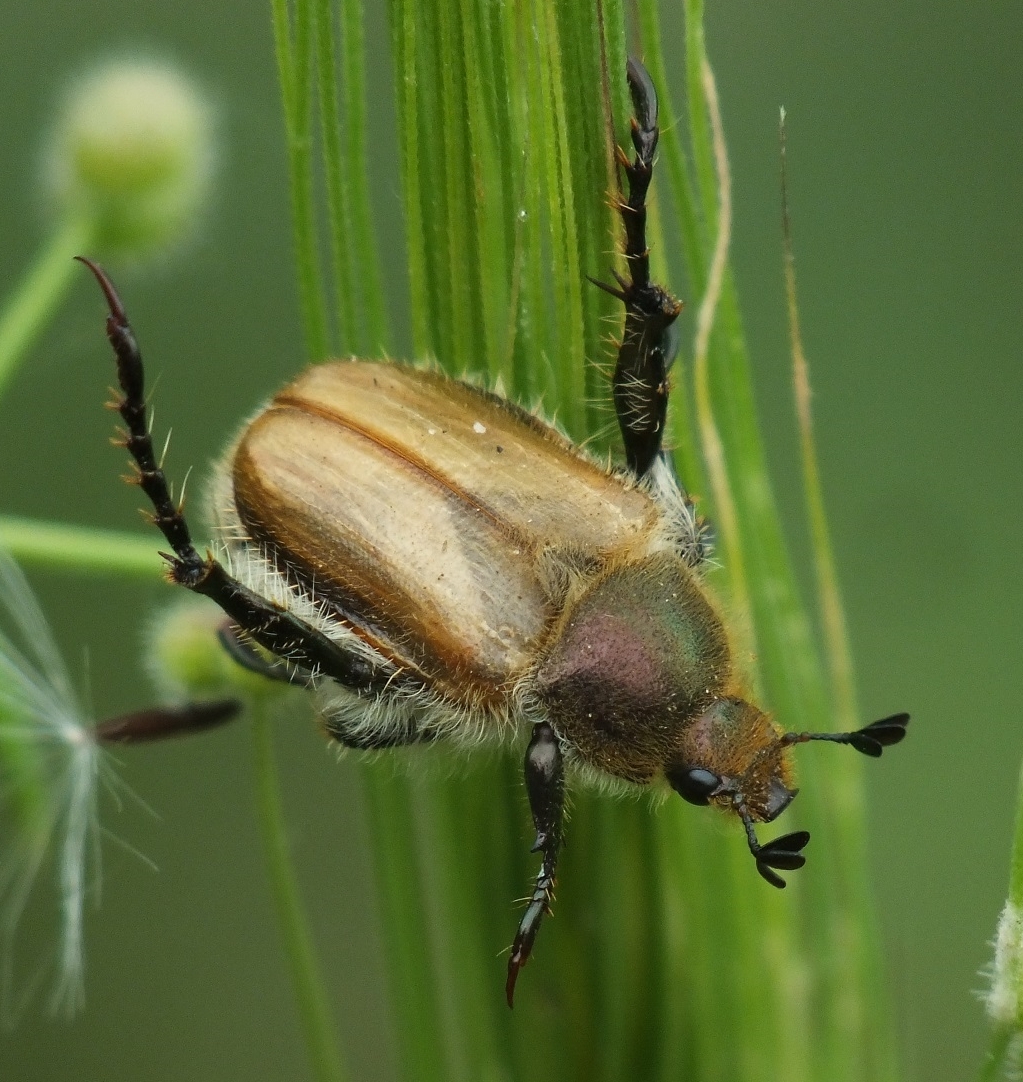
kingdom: Animalia
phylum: Arthropoda
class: Insecta
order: Coleoptera
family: Scarabaeidae
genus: Chaetopteroplia
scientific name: Chaetopteroplia segetum
